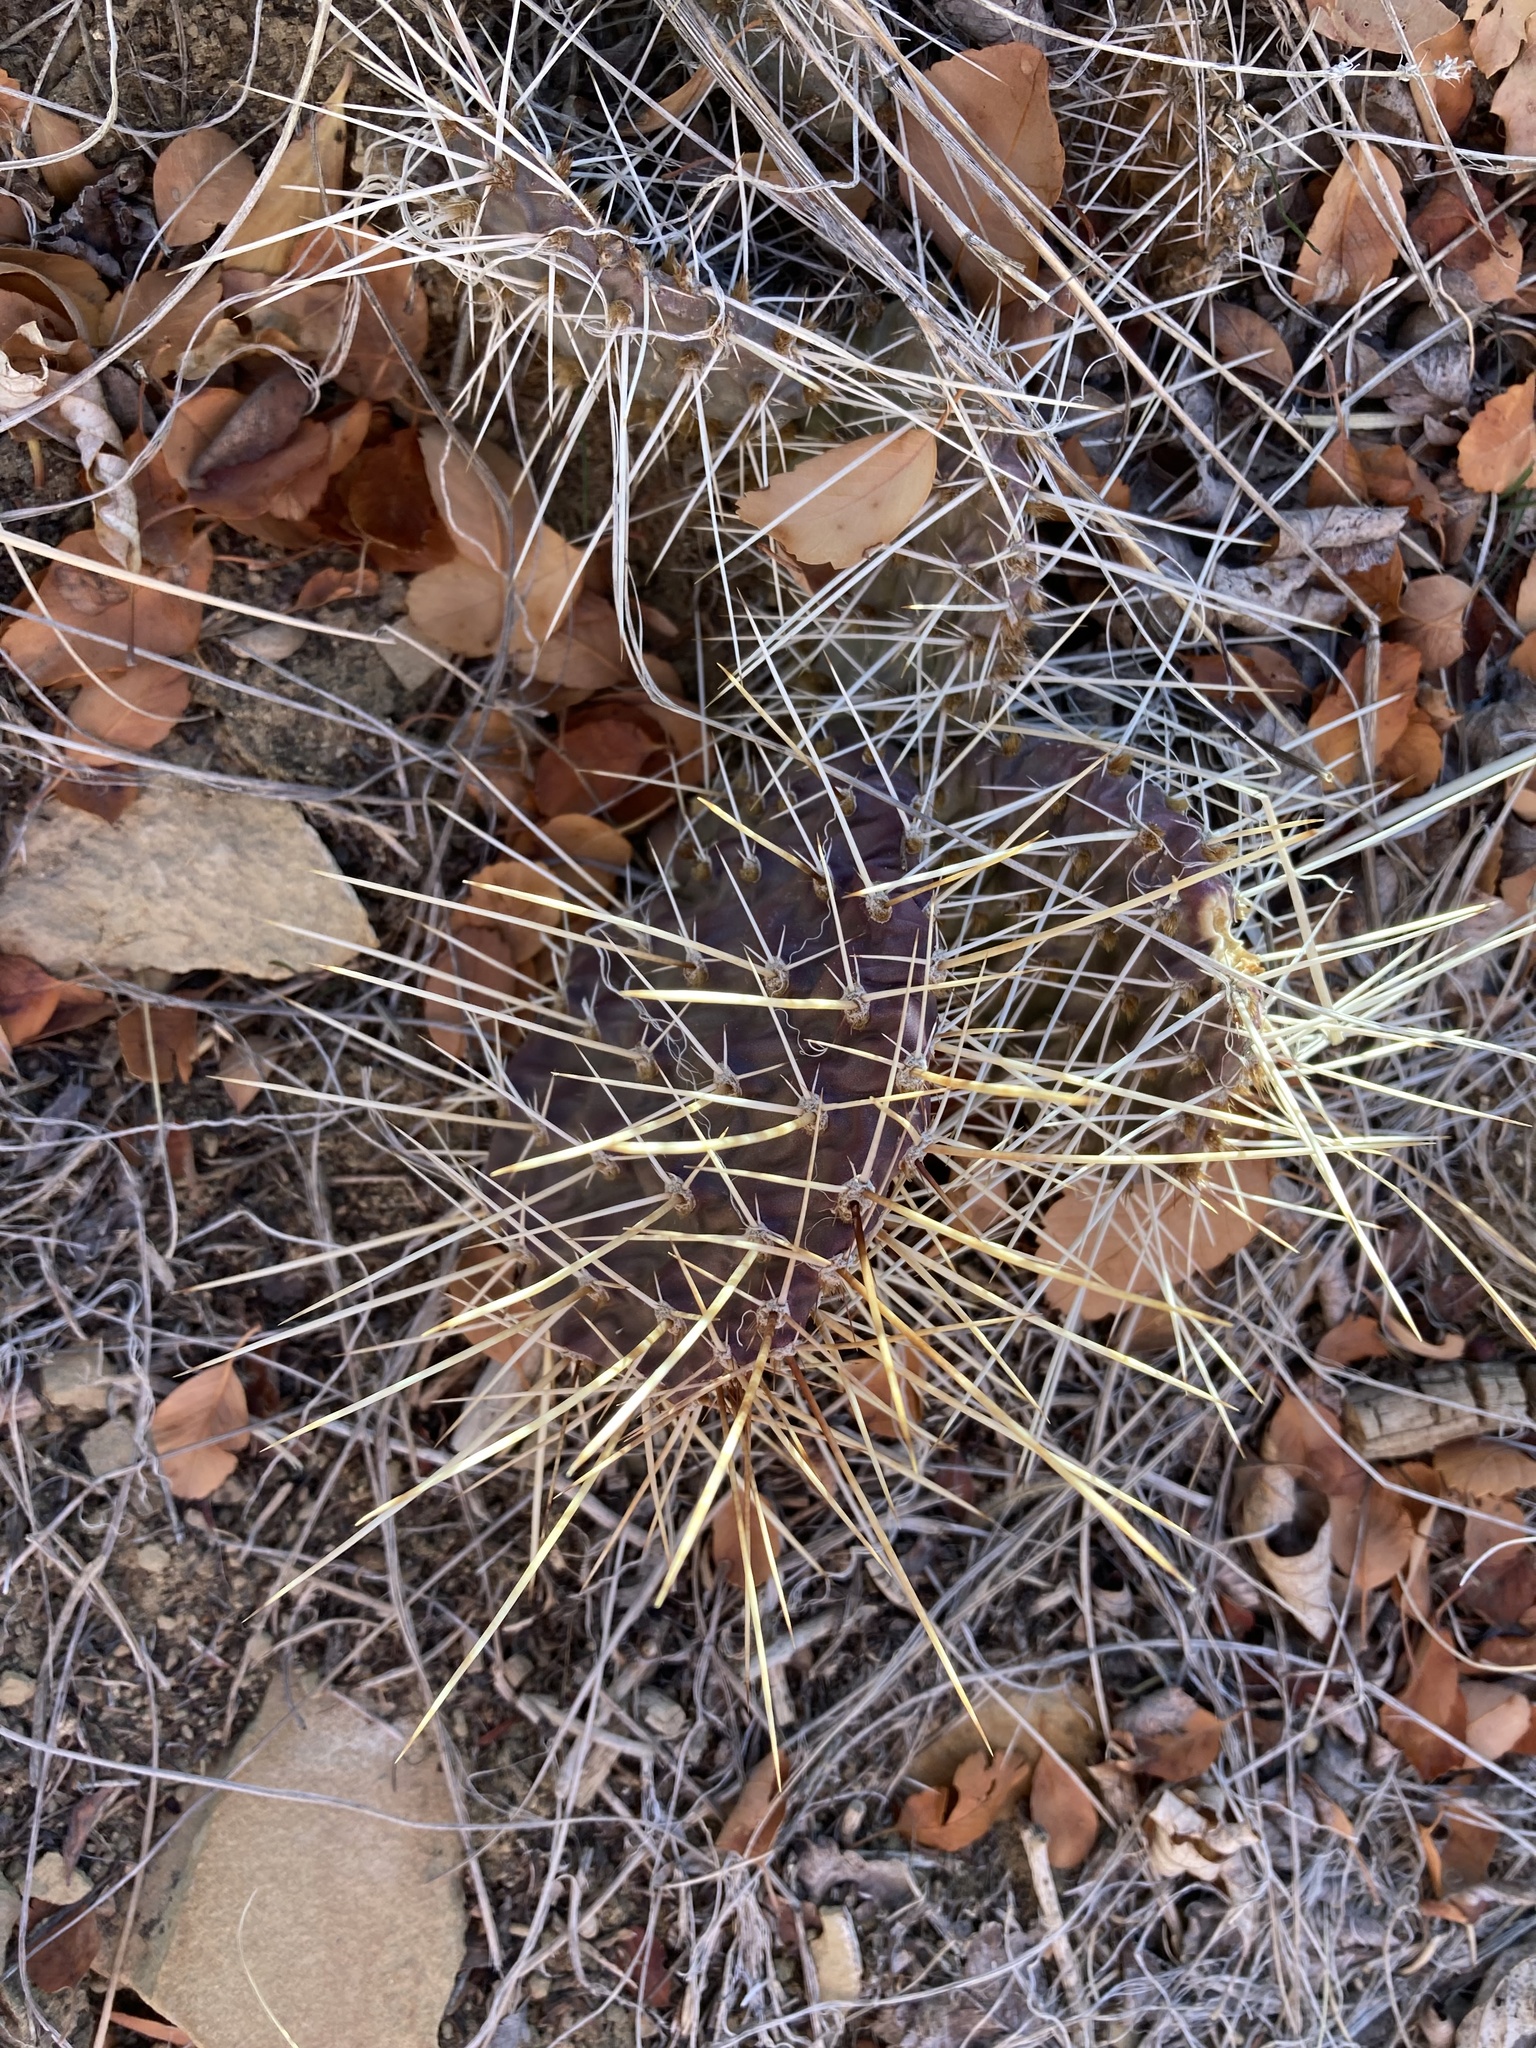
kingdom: Plantae
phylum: Tracheophyta
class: Magnoliopsida
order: Caryophyllales
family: Cactaceae
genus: Opuntia
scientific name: Opuntia macrorhiza
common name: Grassland pricklypear
